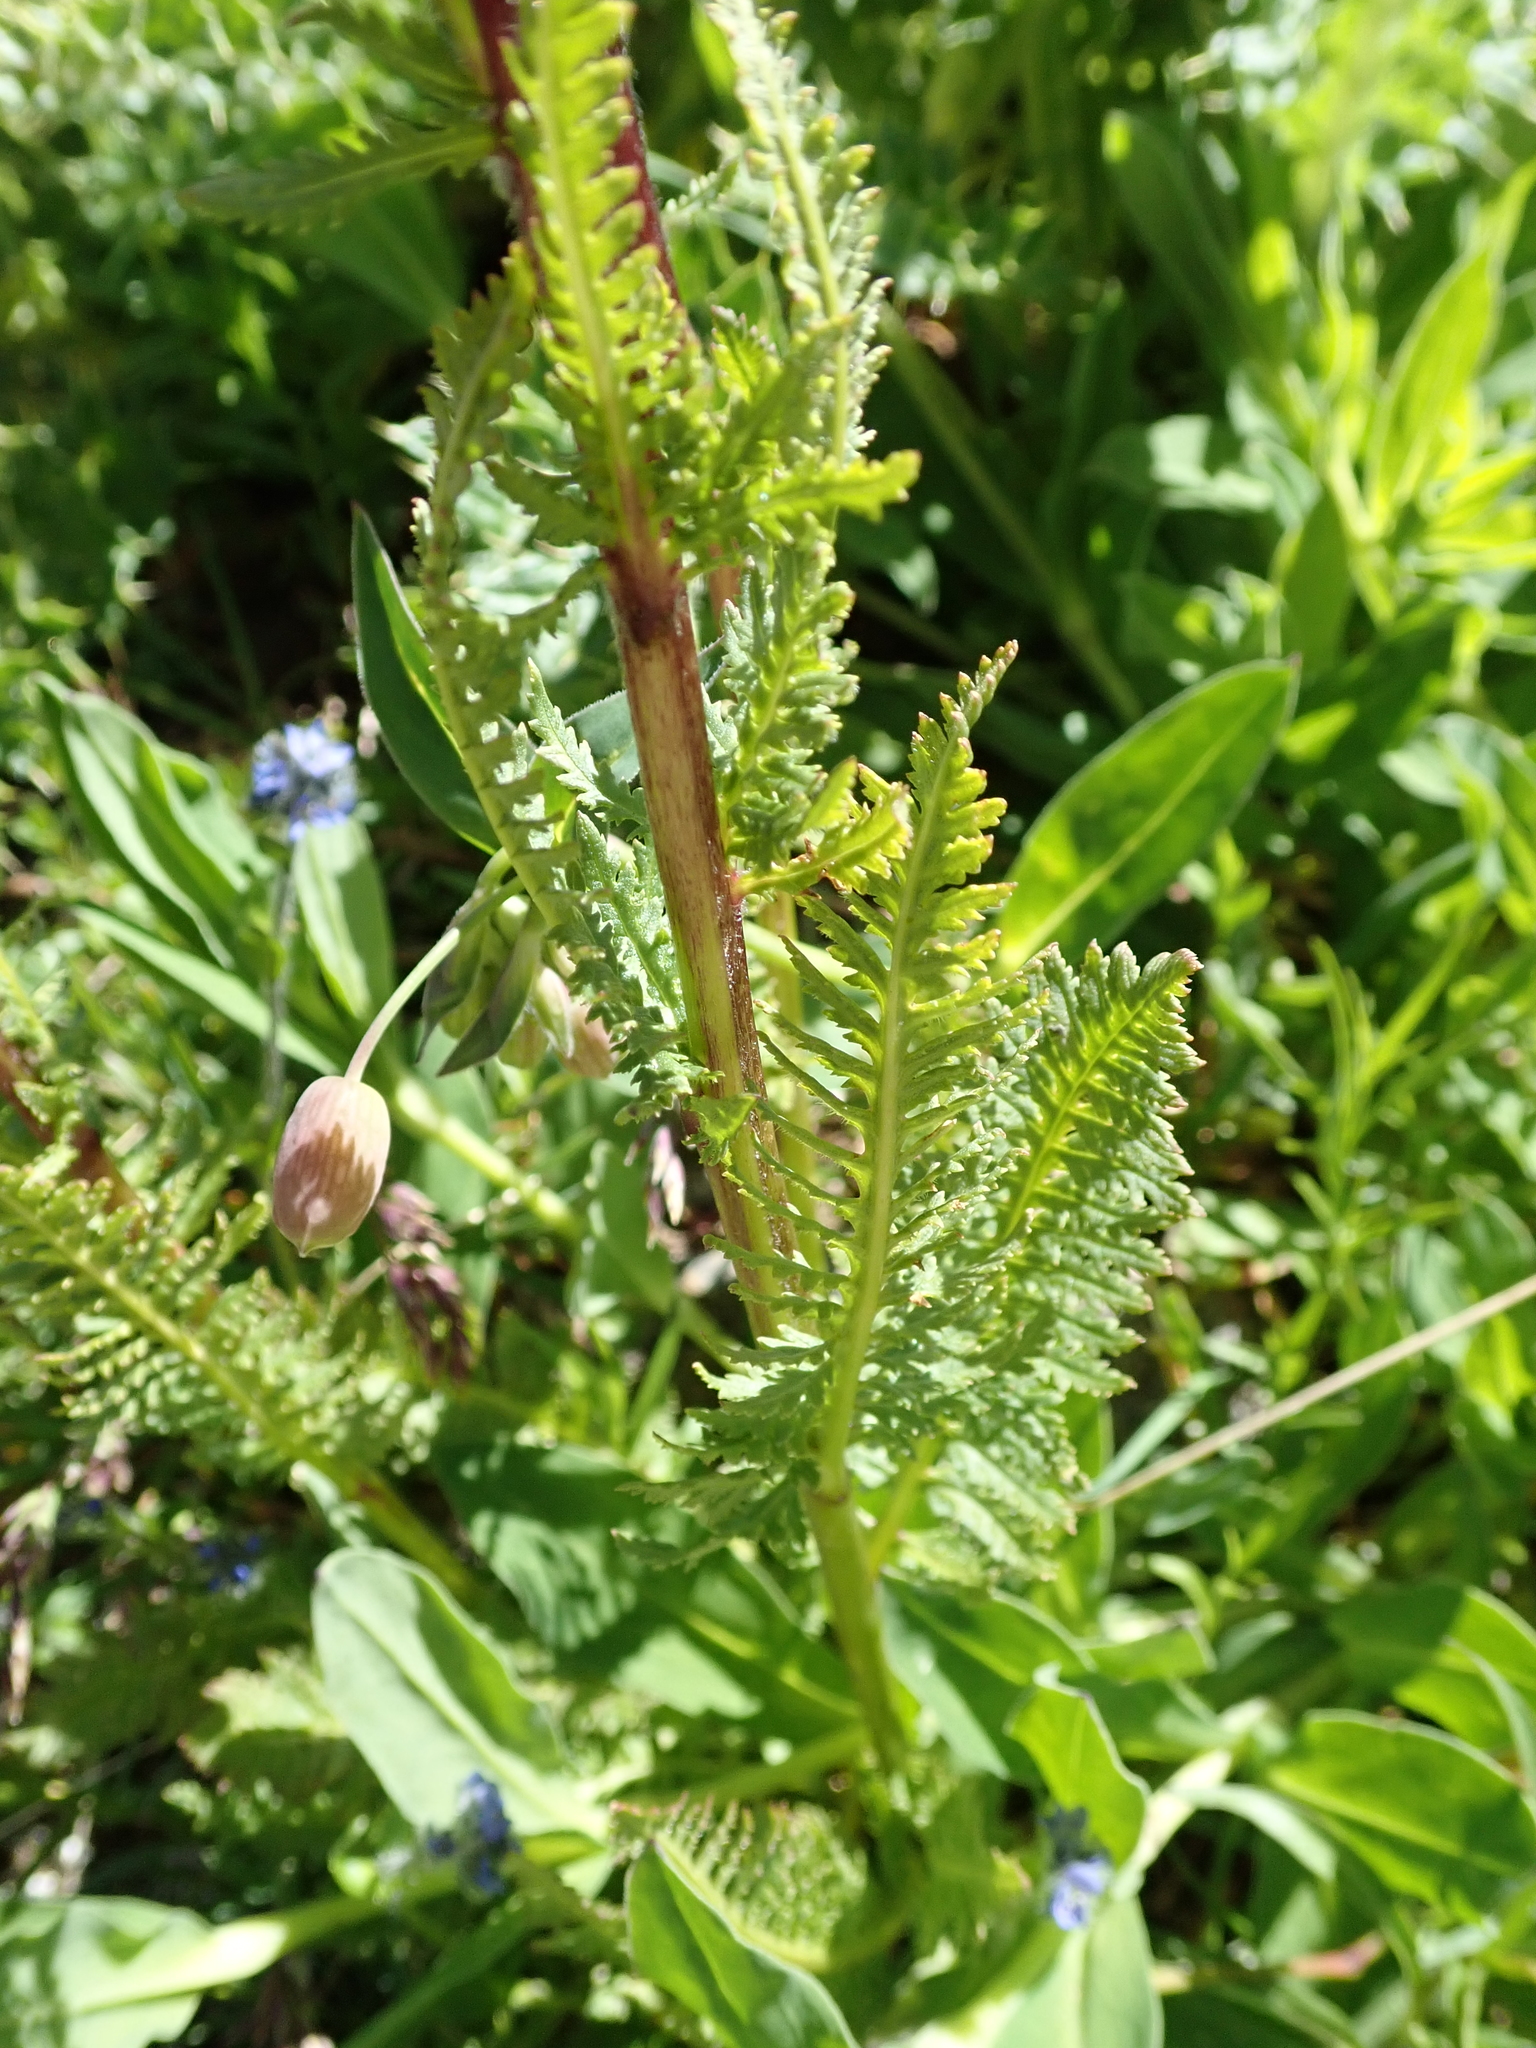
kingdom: Plantae
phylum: Tracheophyta
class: Magnoliopsida
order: Lamiales
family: Orobanchaceae
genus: Pedicularis
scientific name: Pedicularis rostratospicata
